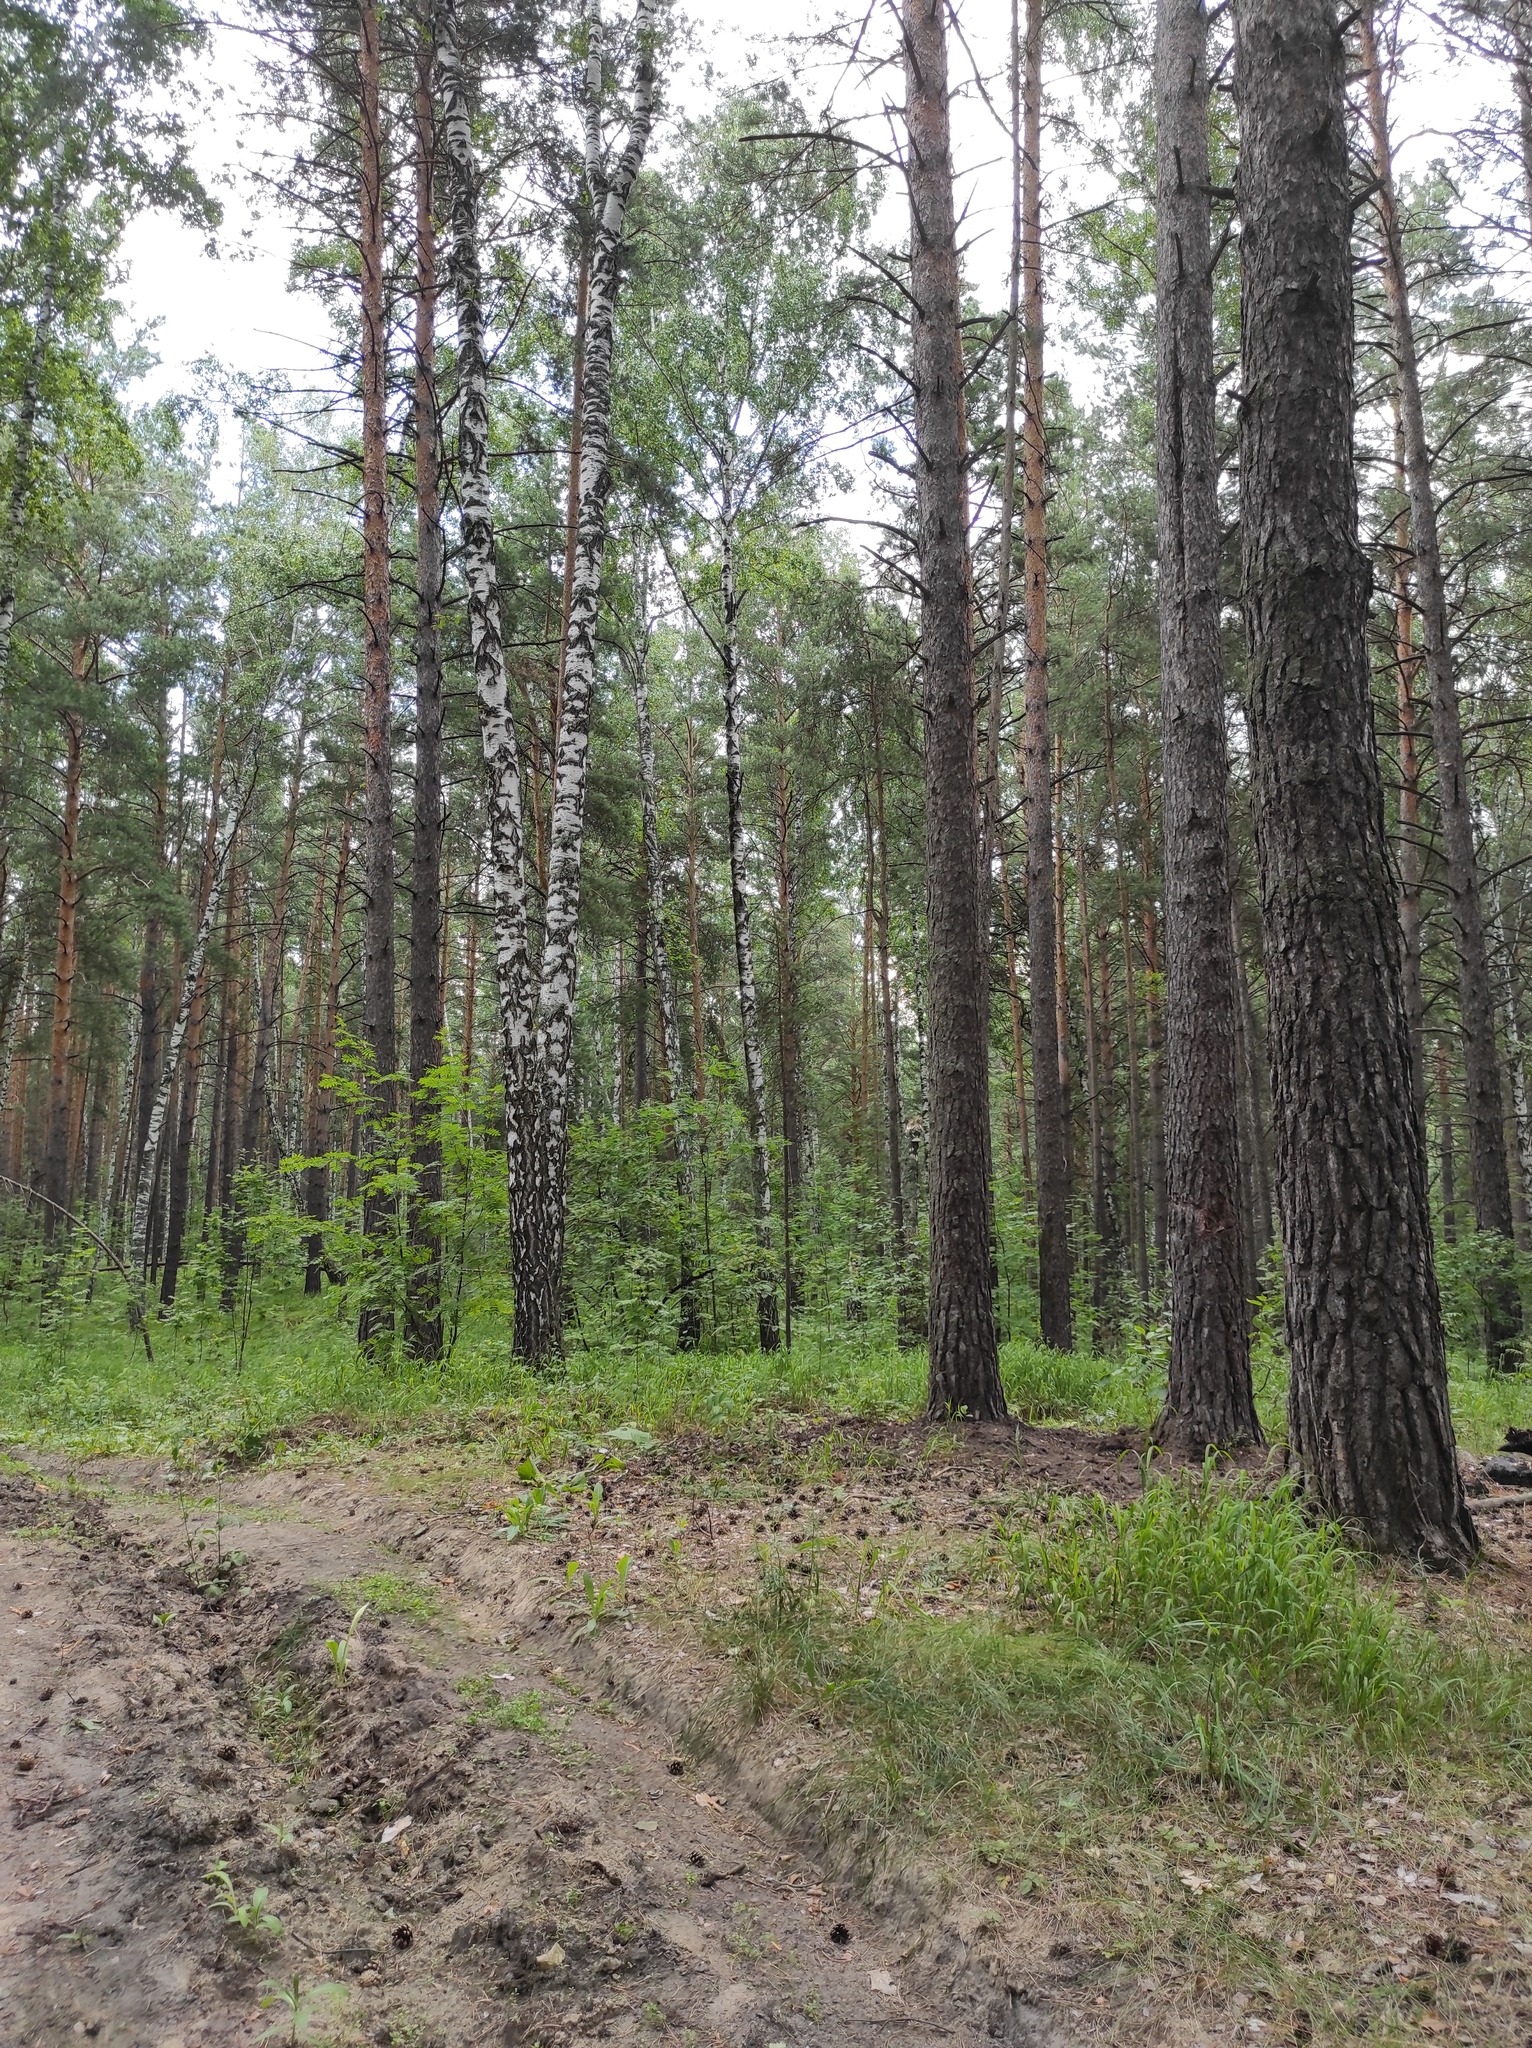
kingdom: Plantae
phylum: Tracheophyta
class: Pinopsida
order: Pinales
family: Pinaceae
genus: Pinus
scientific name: Pinus sylvestris
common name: Scots pine
